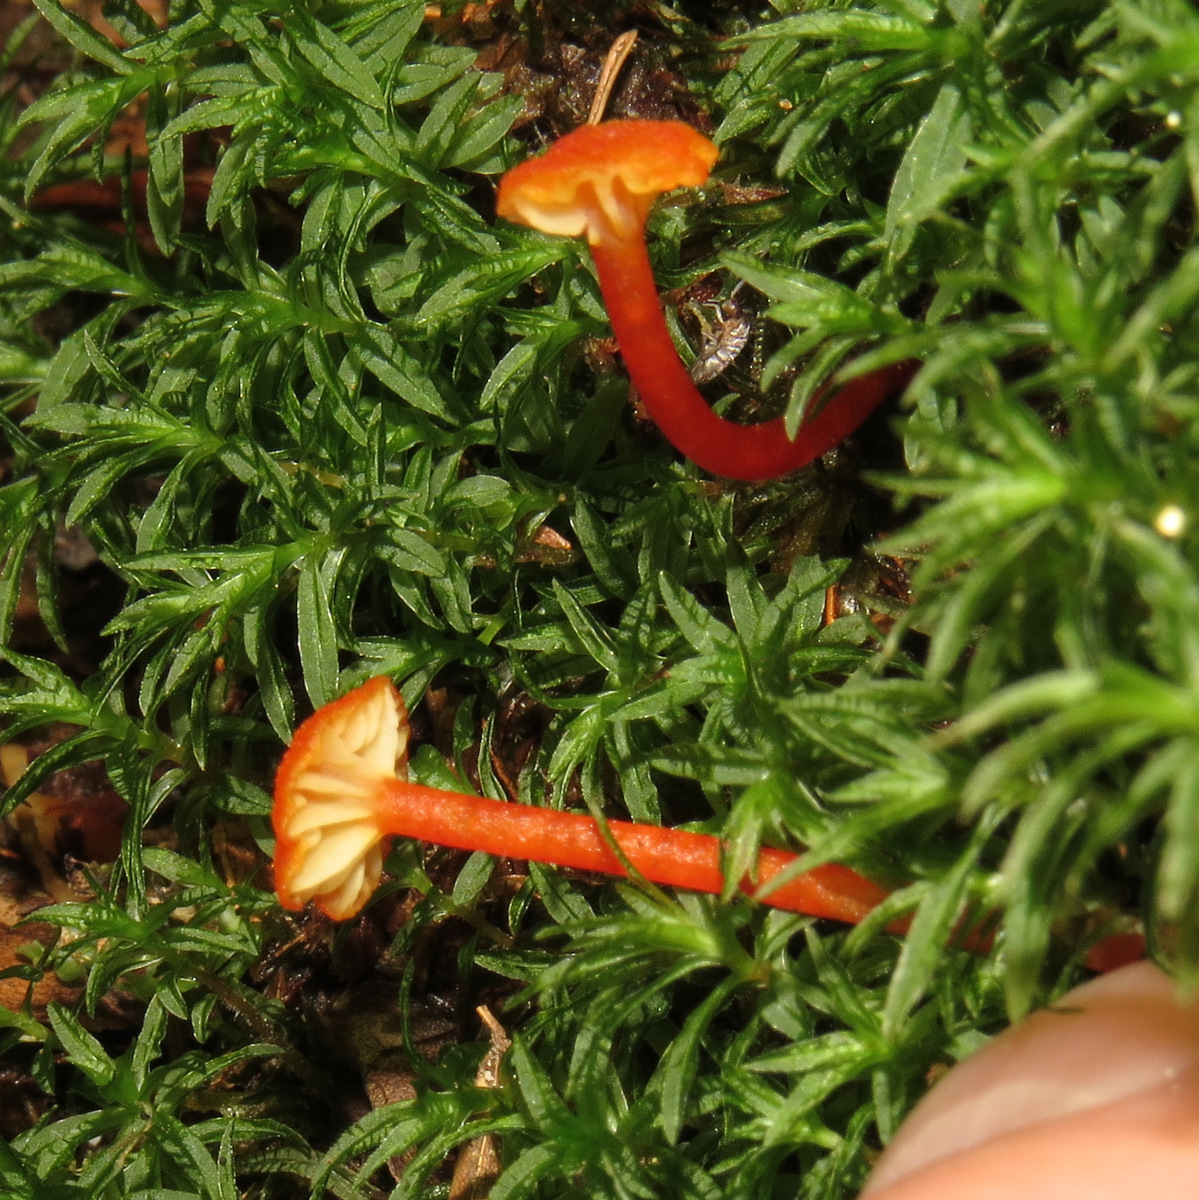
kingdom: Fungi
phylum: Basidiomycota
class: Agaricomycetes
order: Agaricales
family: Hygrophoraceae
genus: Hygrocybe
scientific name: Hygrocybe cantharellus
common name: Goblet waxcap
